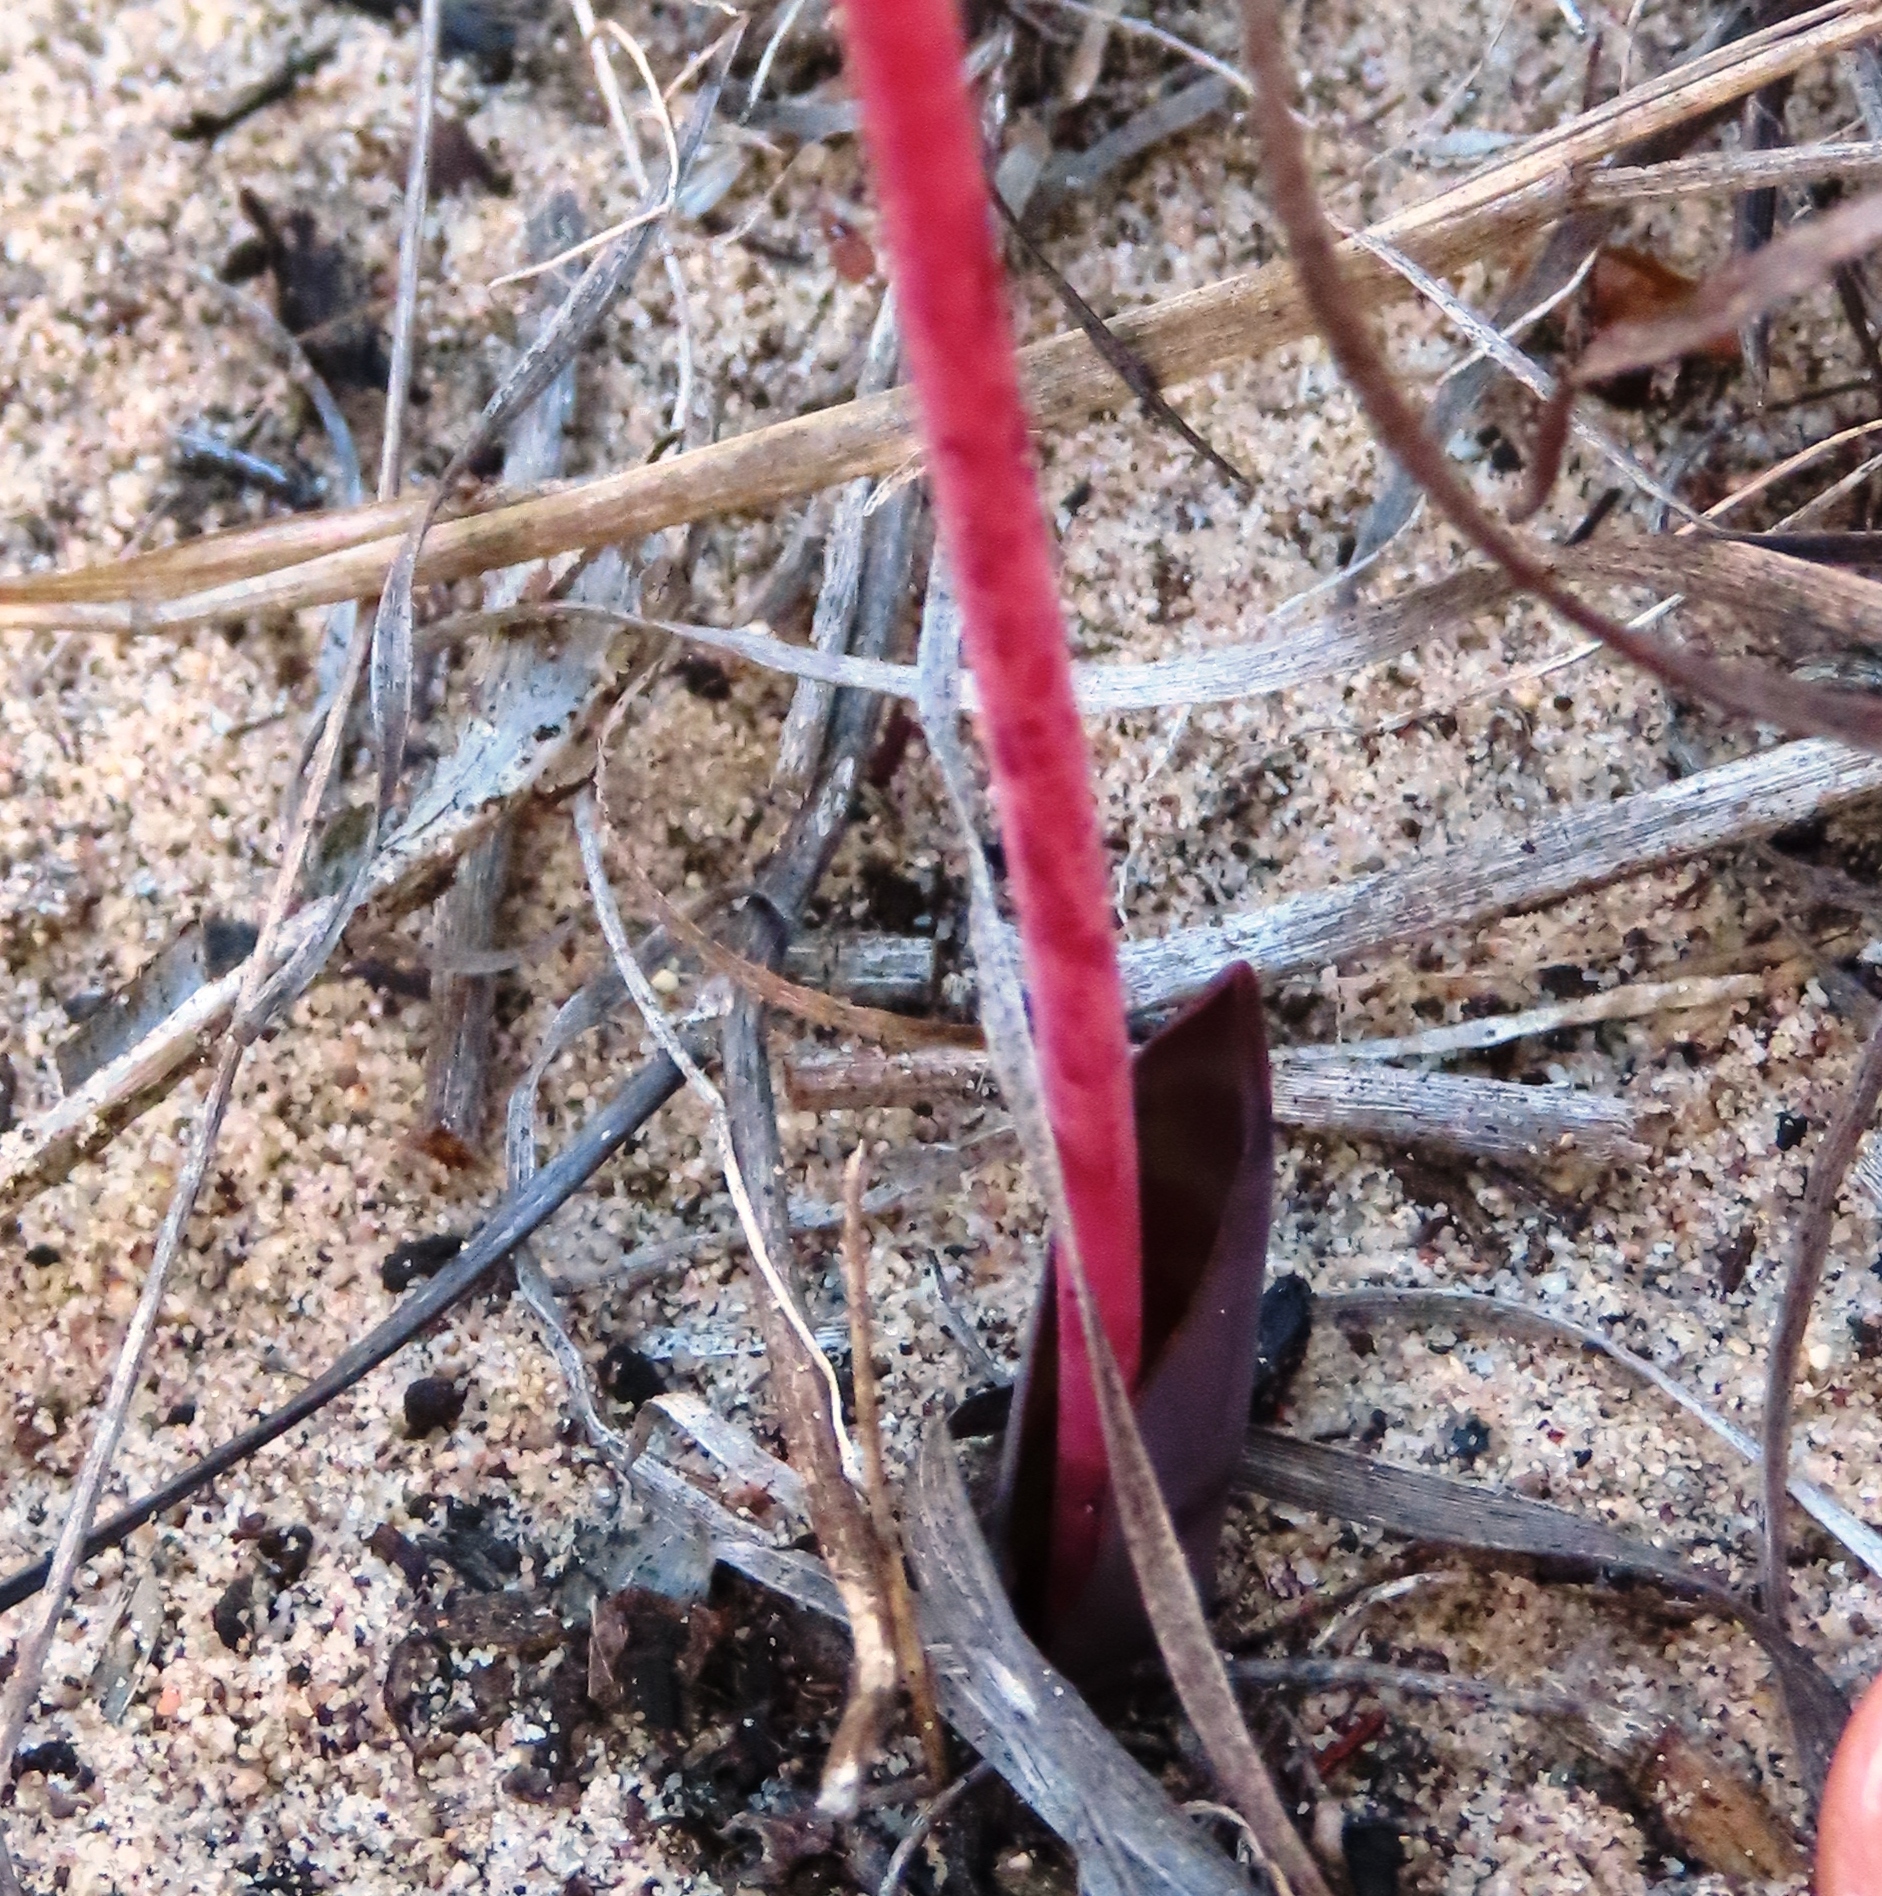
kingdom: Plantae
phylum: Tracheophyta
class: Liliopsida
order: Asparagales
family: Asparagaceae
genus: Lachenalia
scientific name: Lachenalia punctata
